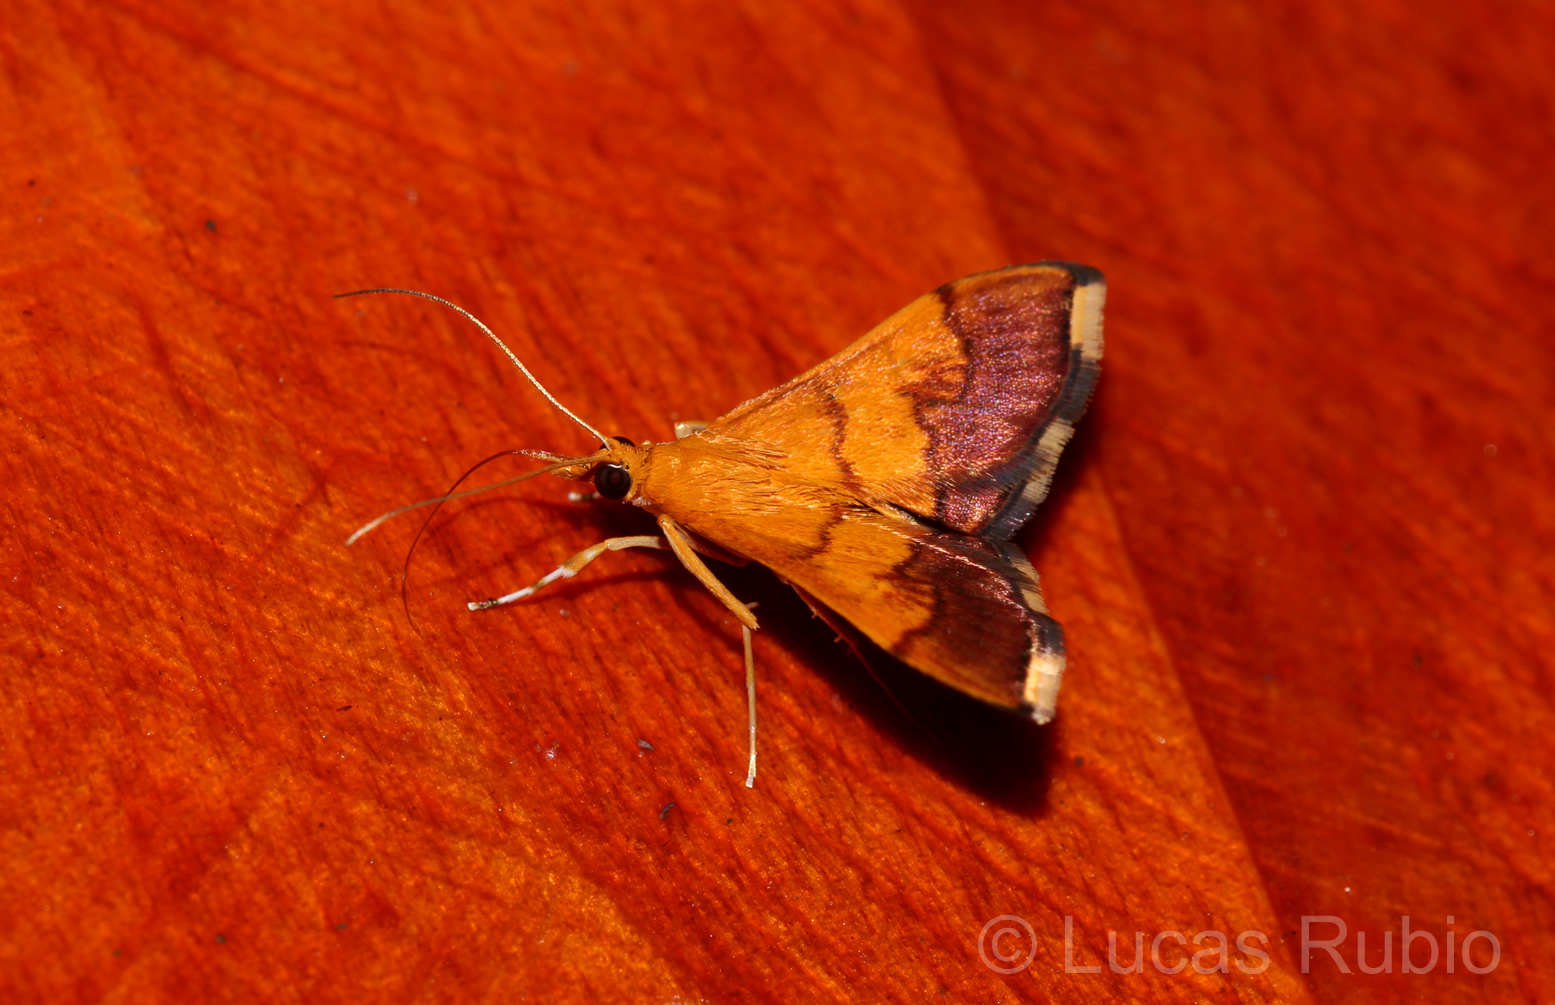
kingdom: Animalia
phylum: Arthropoda
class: Insecta
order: Lepidoptera
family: Crambidae
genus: Pyrausta
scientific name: Pyrausta bicoloralis
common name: Bicolored pyrausta moth
